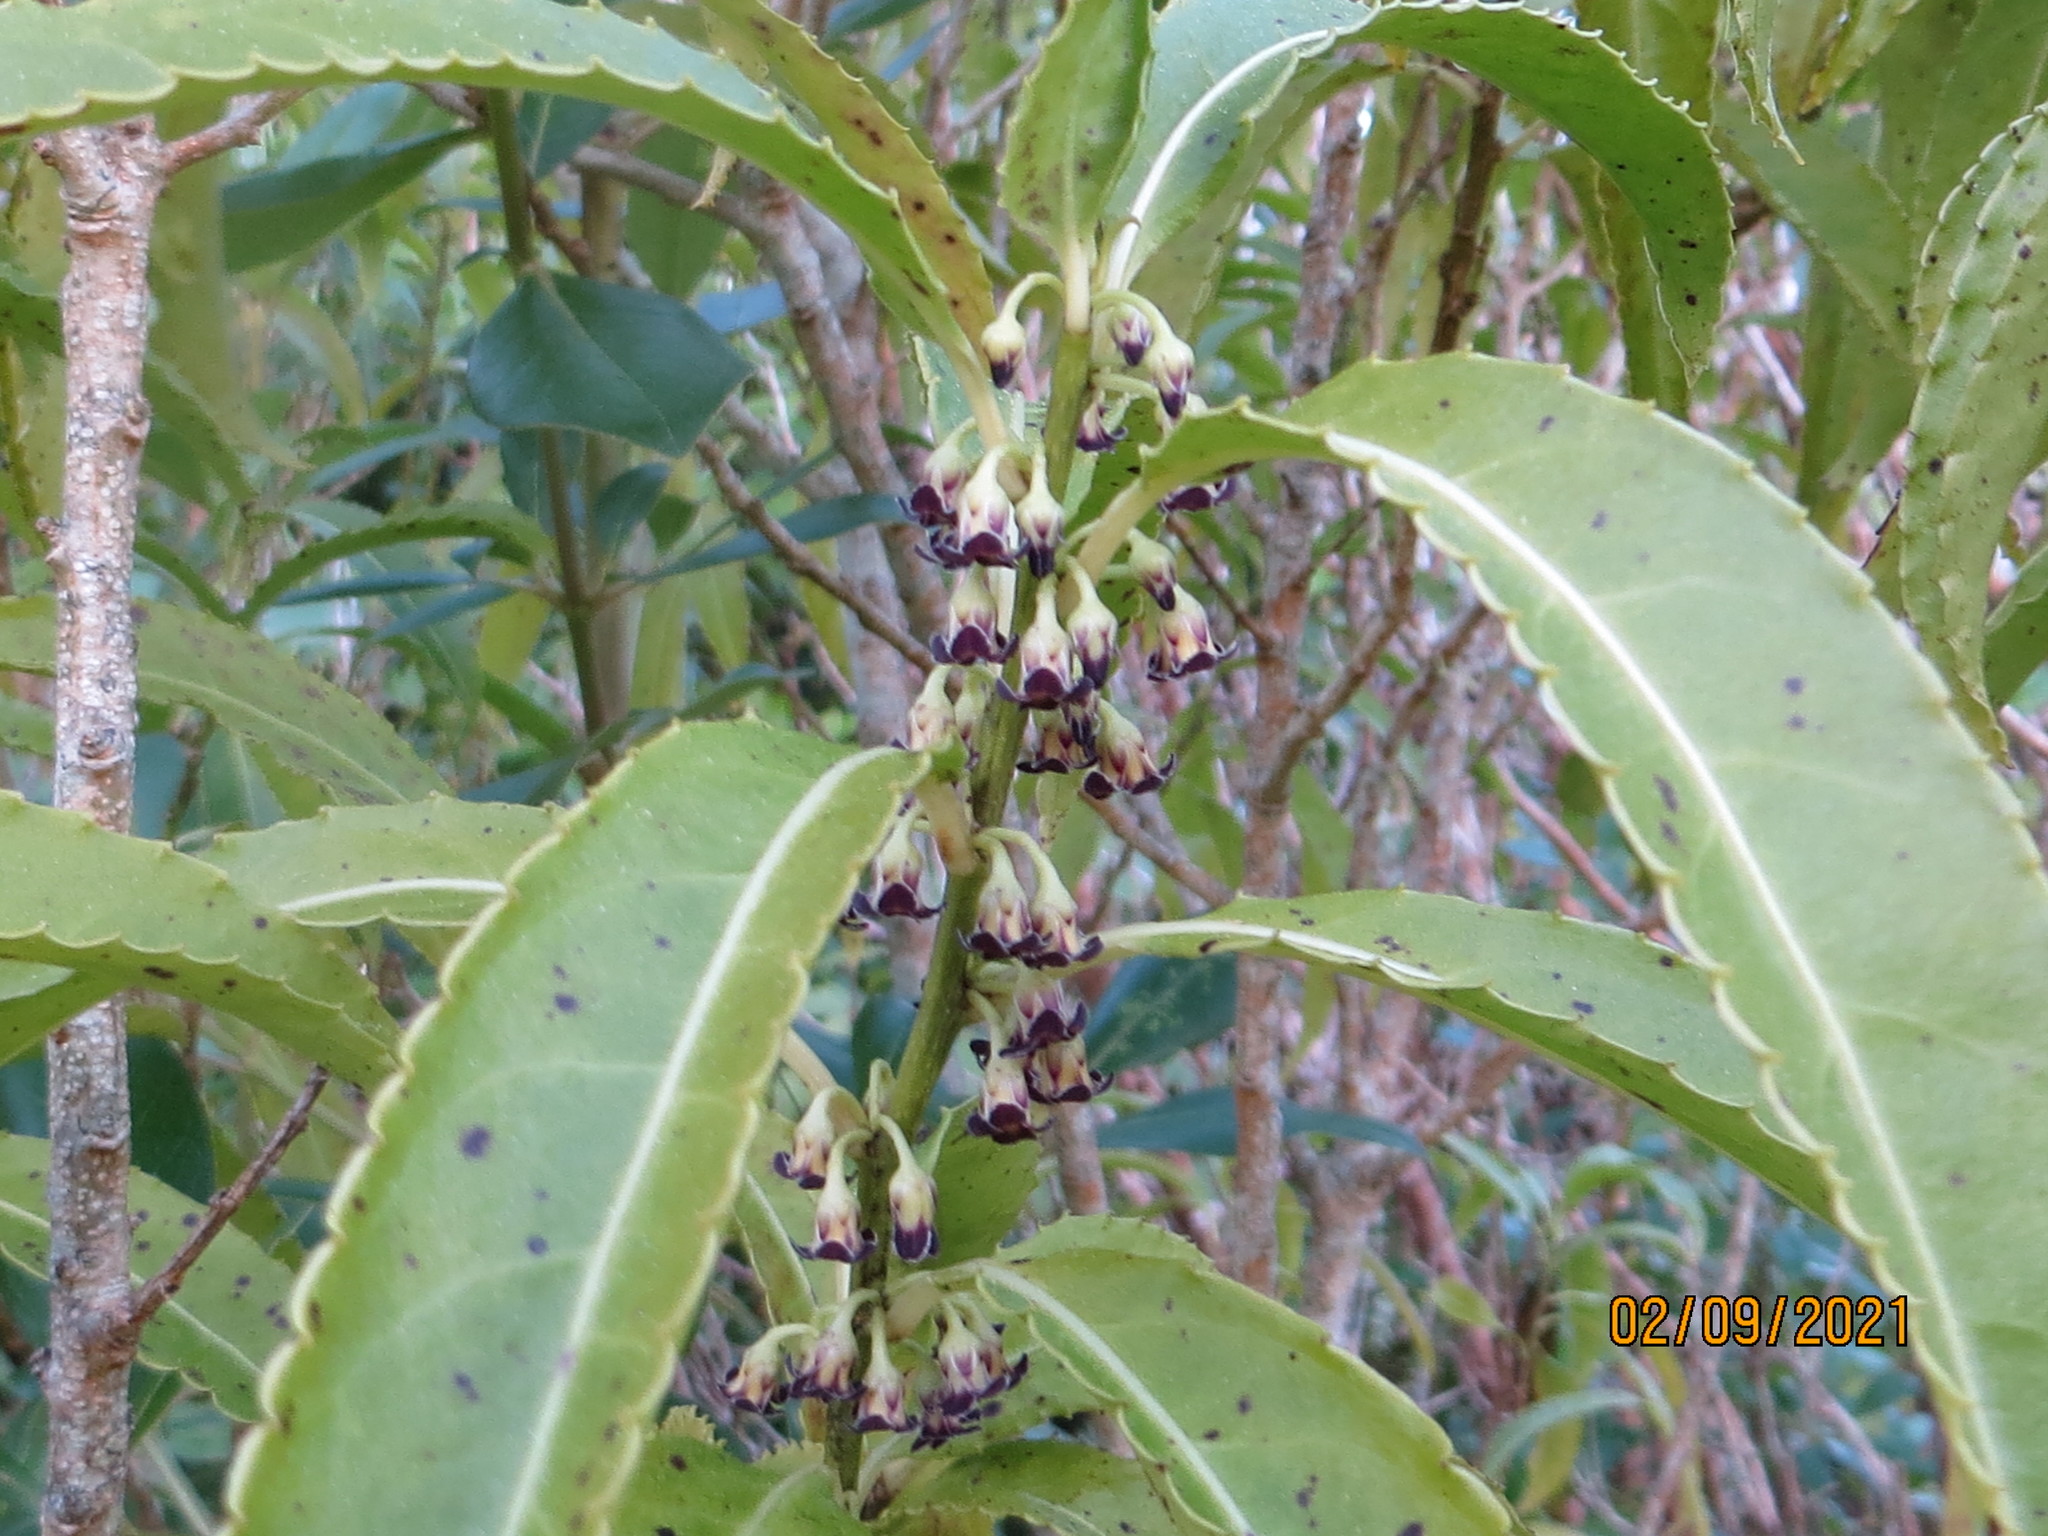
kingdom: Plantae
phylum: Tracheophyta
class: Magnoliopsida
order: Malpighiales
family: Violaceae
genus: Melicytus
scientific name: Melicytus lanceolatus
